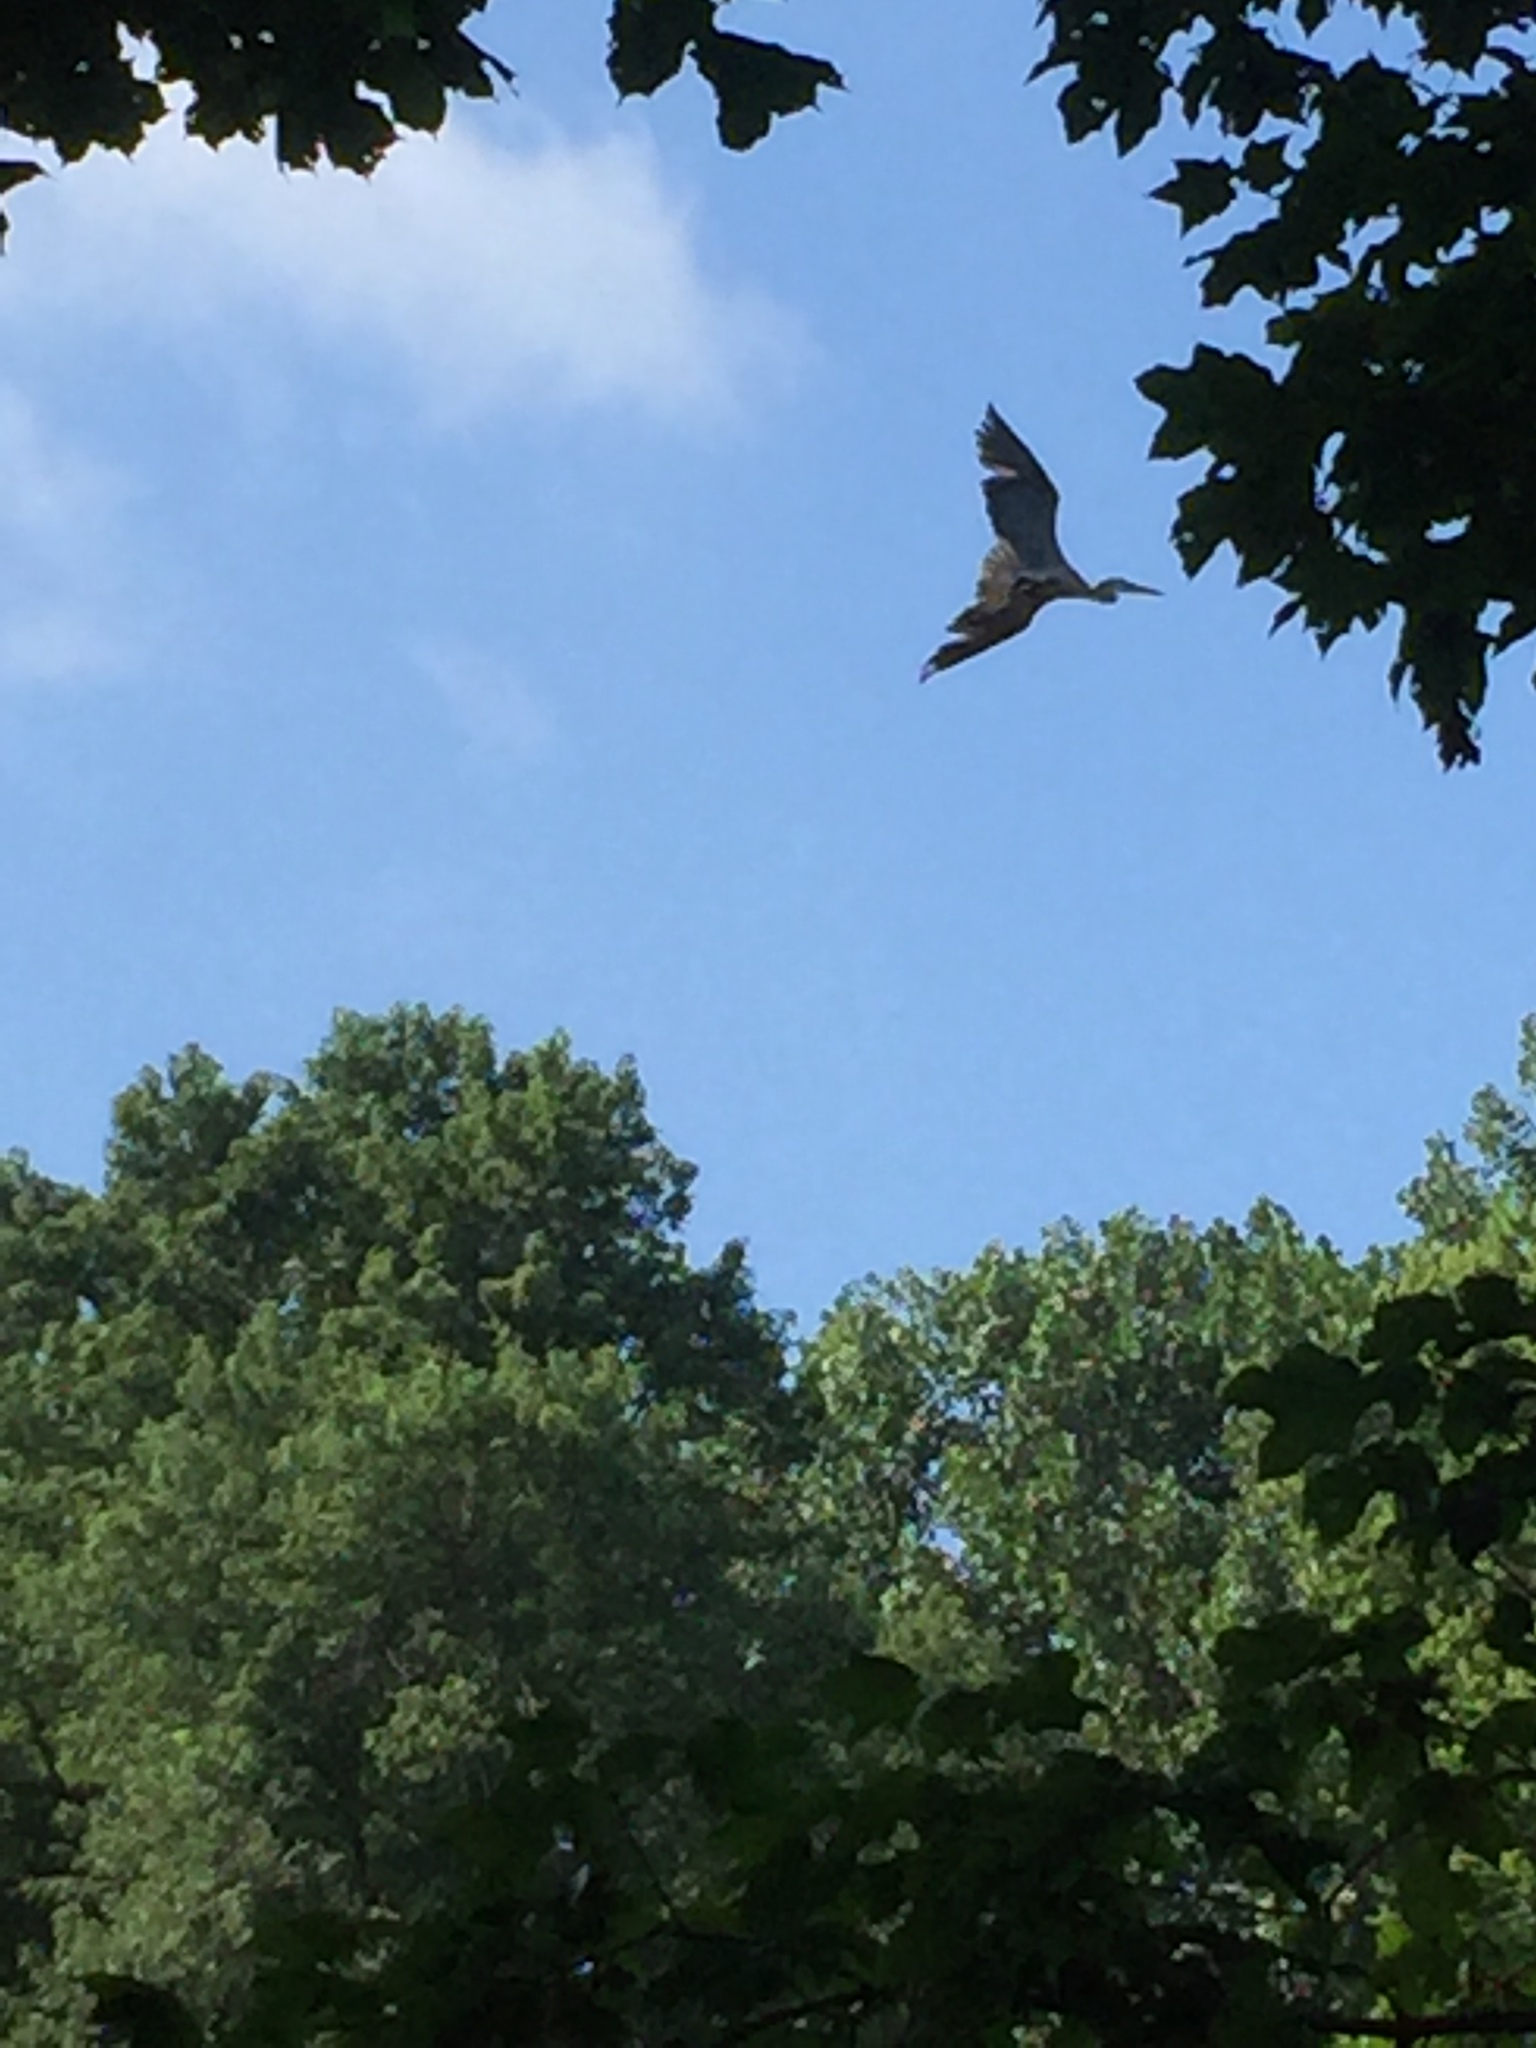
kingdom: Animalia
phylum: Chordata
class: Aves
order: Pelecaniformes
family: Ardeidae
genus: Ardea
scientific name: Ardea herodias
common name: Great blue heron
